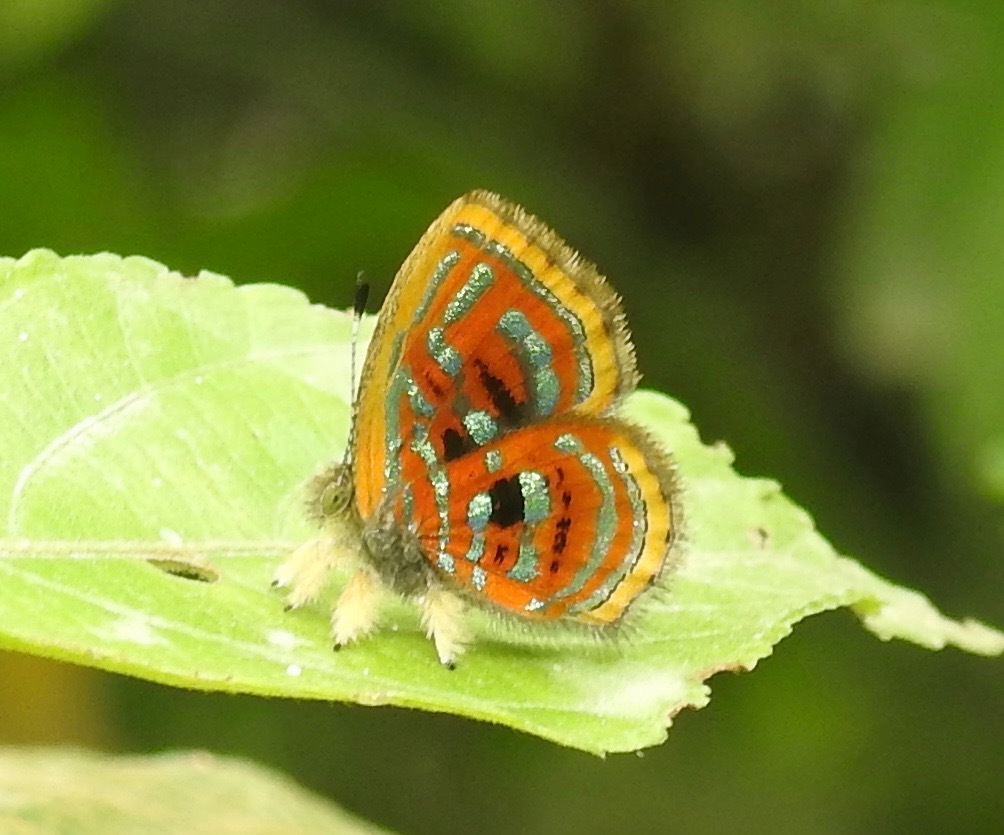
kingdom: Animalia
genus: Charis
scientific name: Charis Sarota acantus
